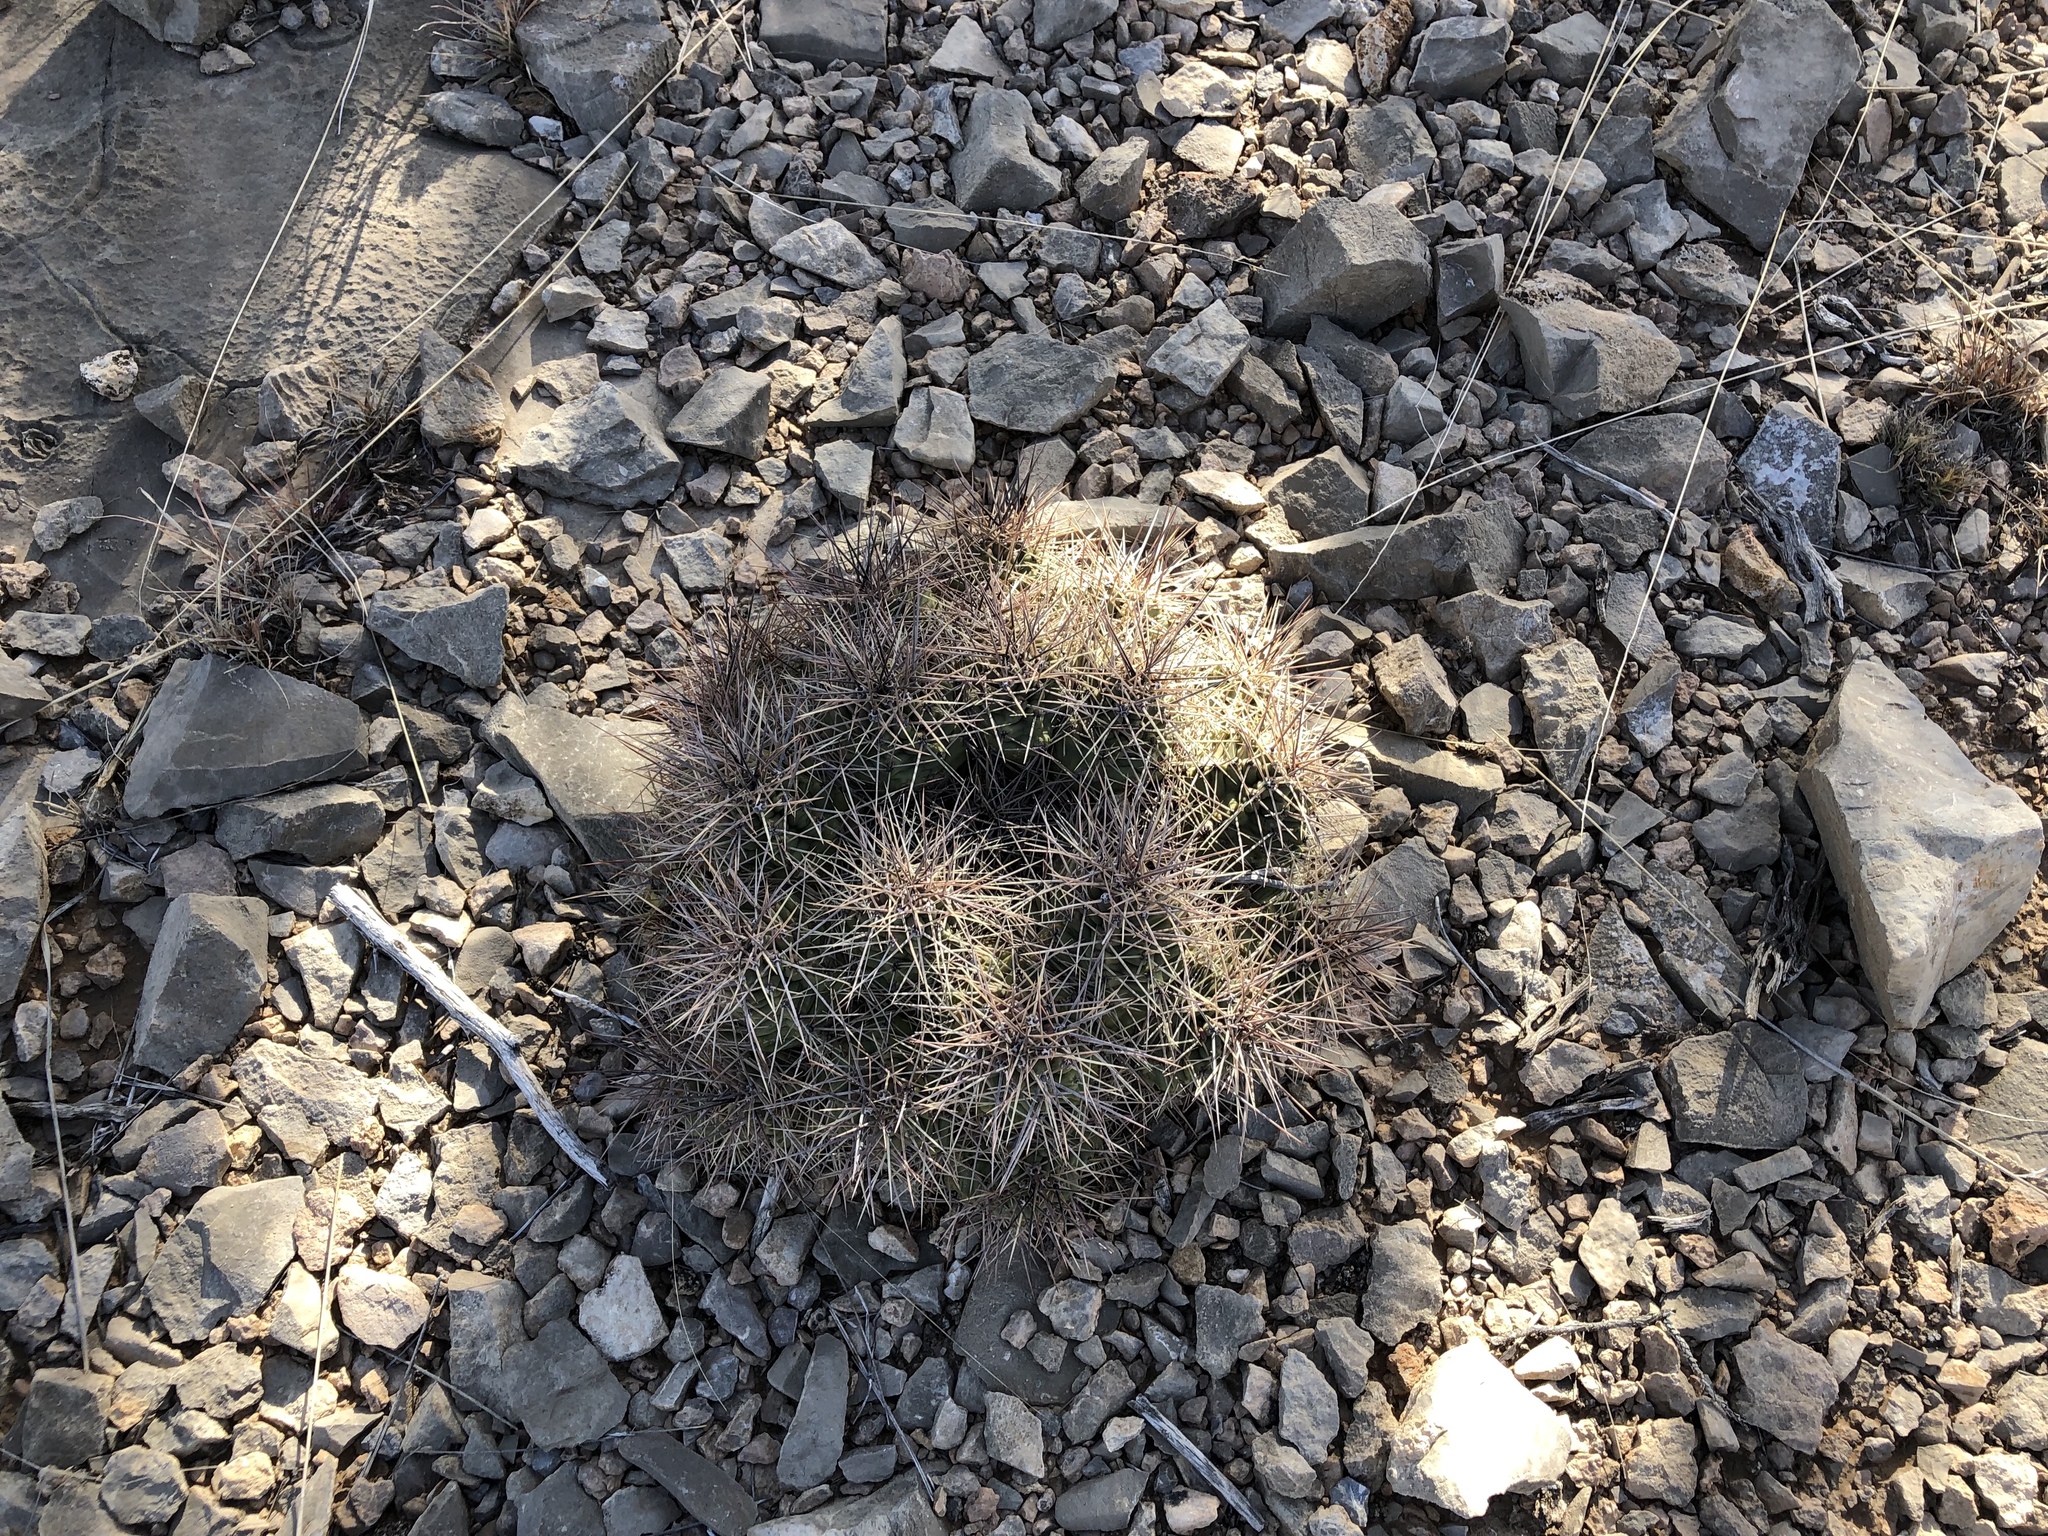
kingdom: Plantae
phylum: Tracheophyta
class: Magnoliopsida
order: Caryophyllales
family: Cactaceae
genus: Echinocereus
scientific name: Echinocereus coccineus
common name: Scarlet hedgehog cactus
